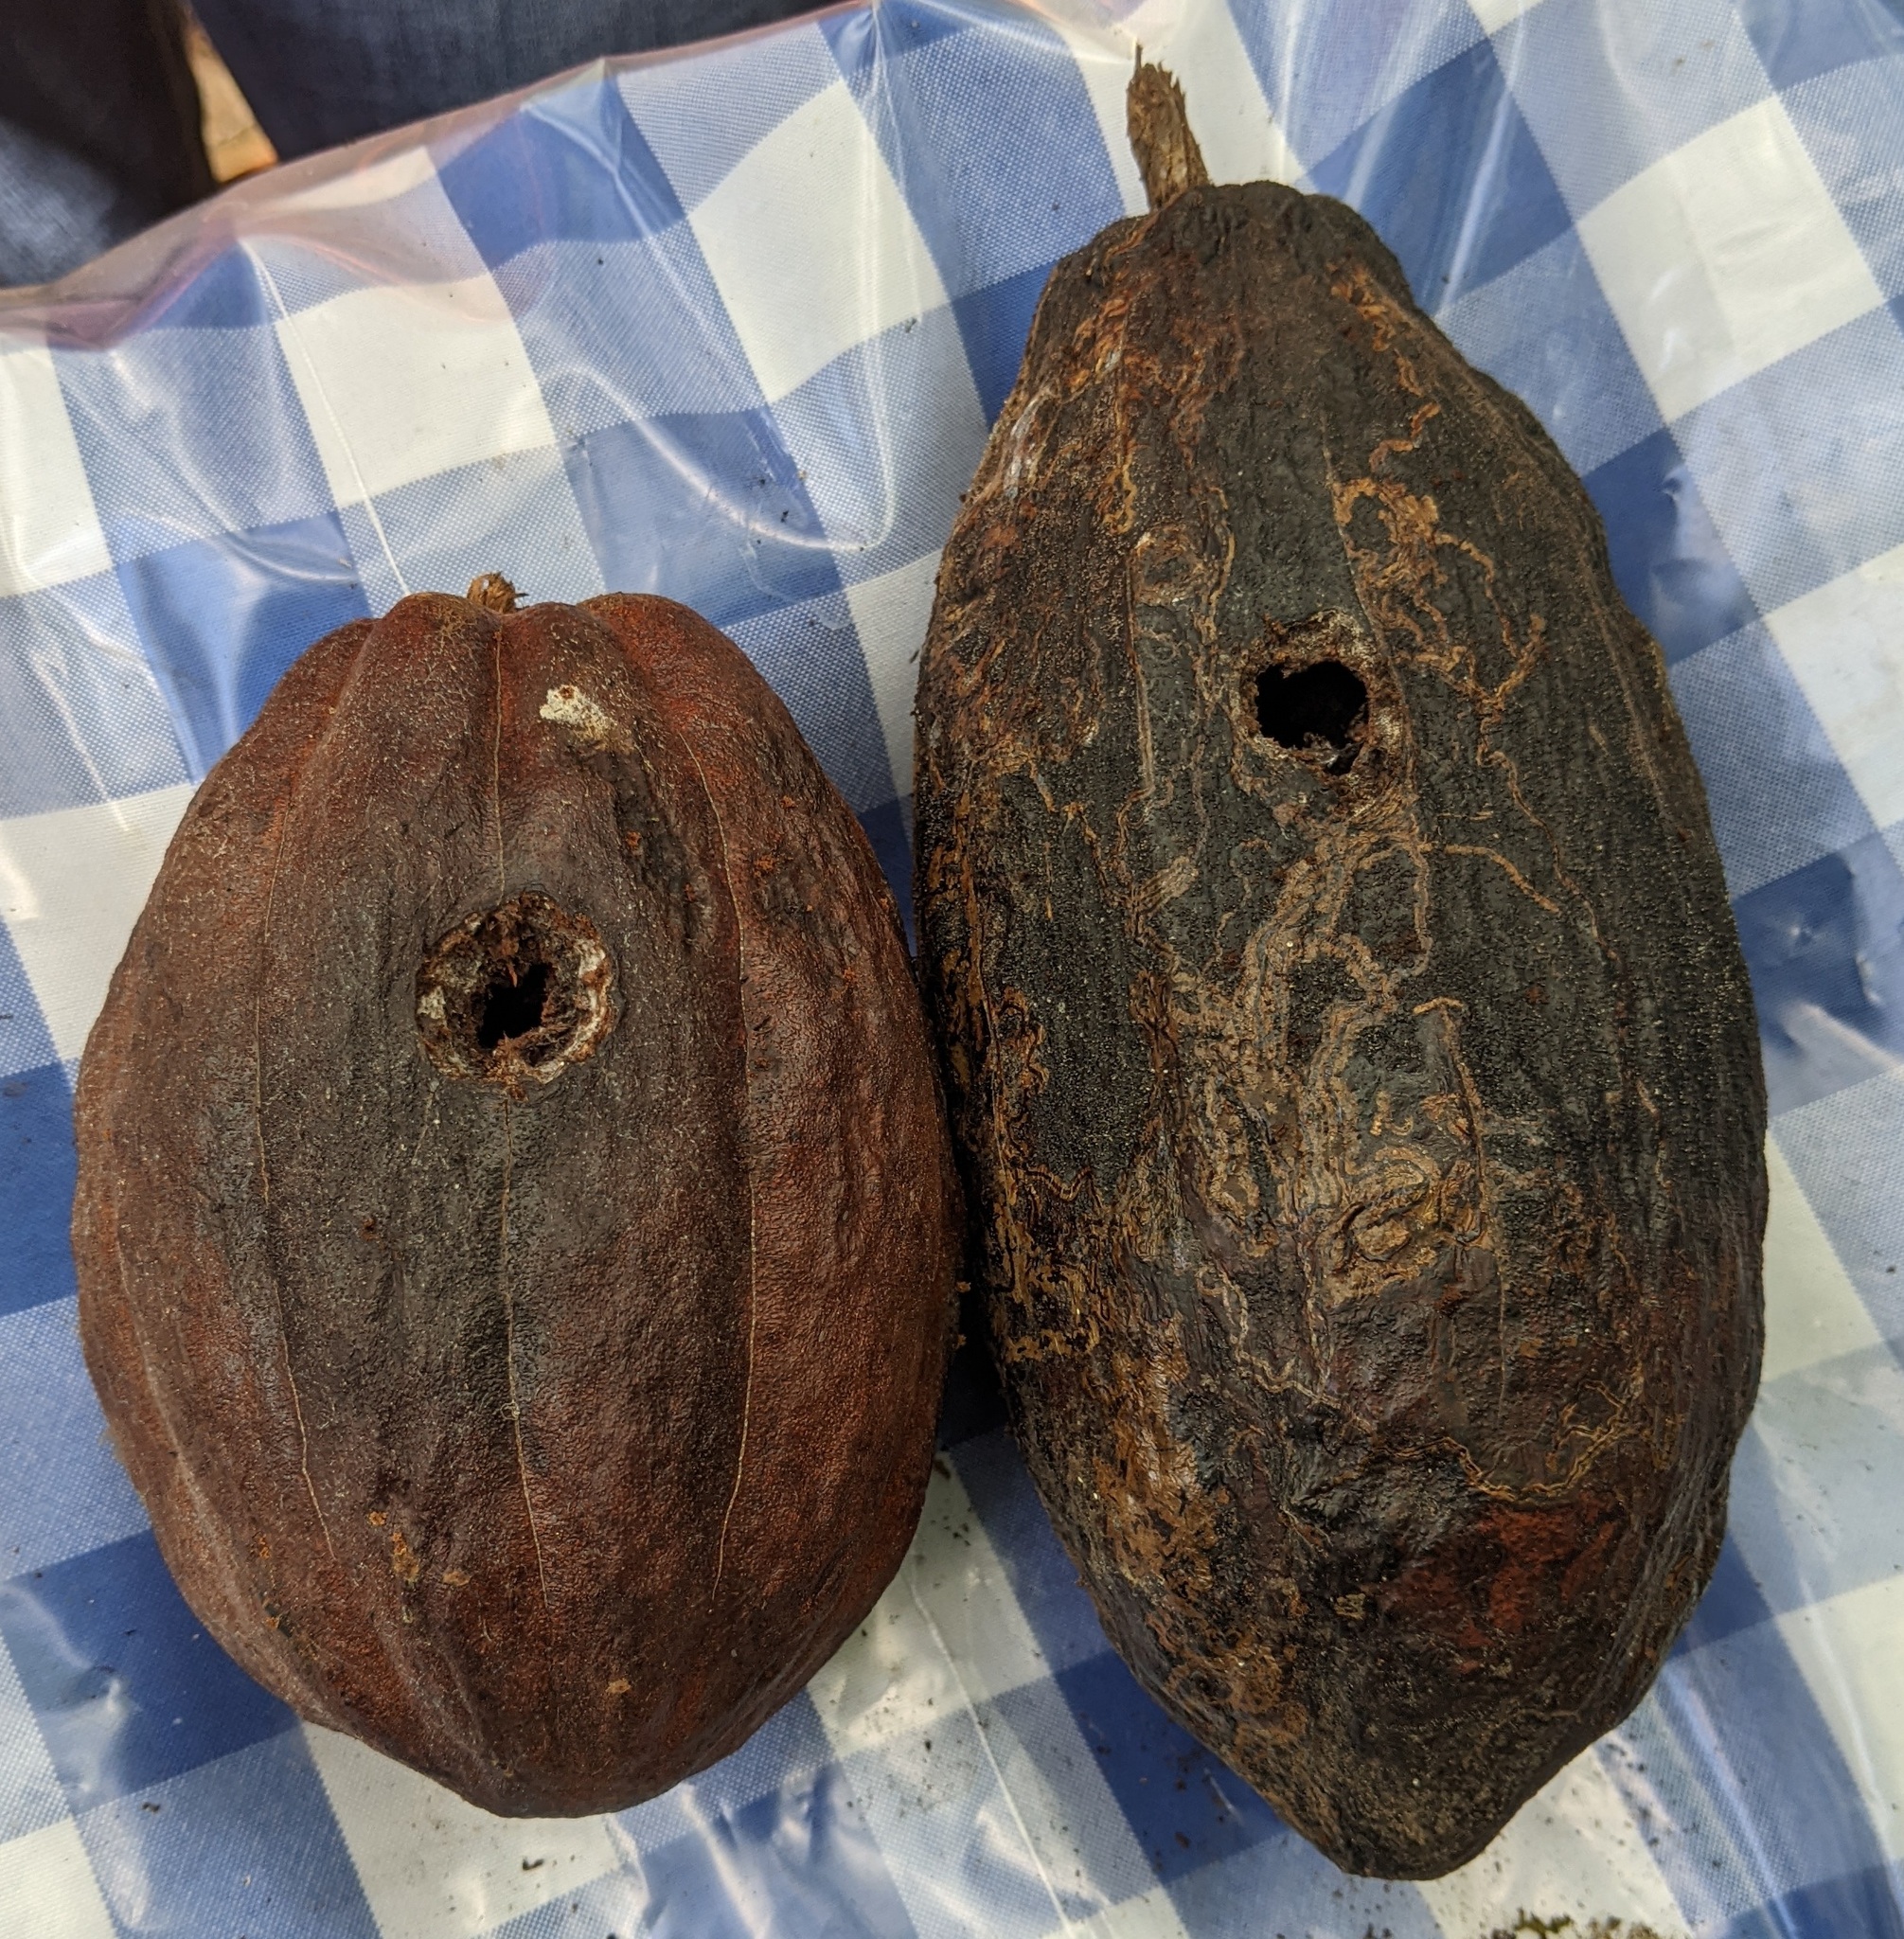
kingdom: Animalia
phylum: Chordata
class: Aves
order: Piciformes
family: Picidae
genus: Melanerpes
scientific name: Melanerpes striatus
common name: Hispaniolan woodpecker
